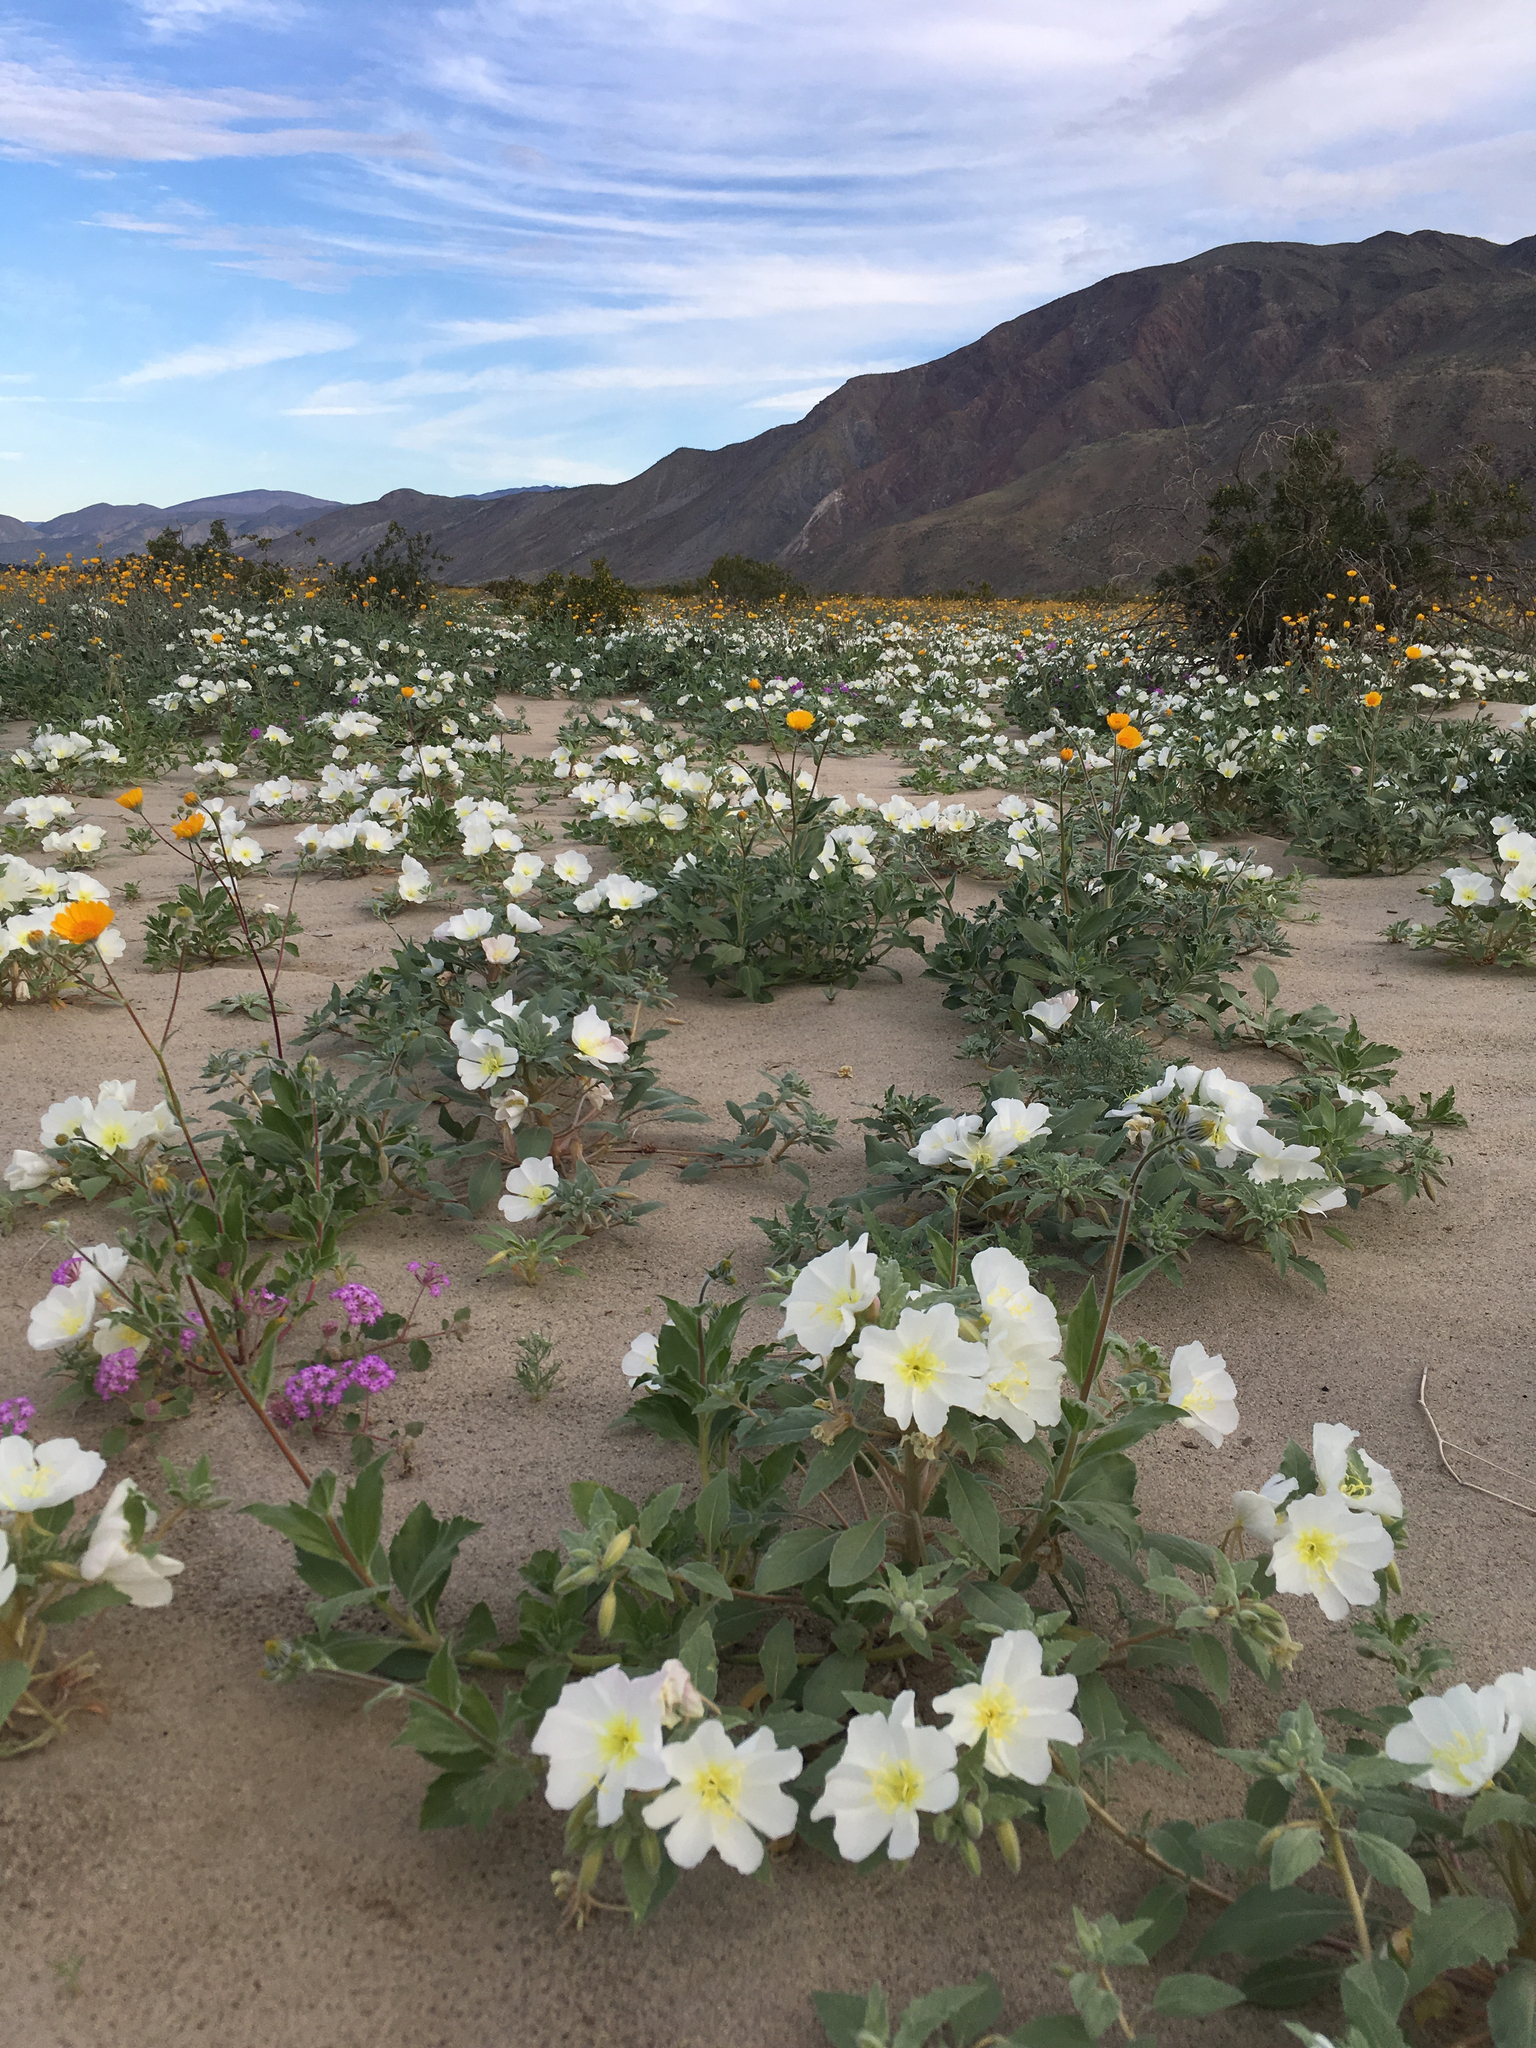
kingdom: Plantae
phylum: Tracheophyta
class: Magnoliopsida
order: Myrtales
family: Onagraceae
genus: Oenothera
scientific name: Oenothera deltoides
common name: Basket evening-primrose
